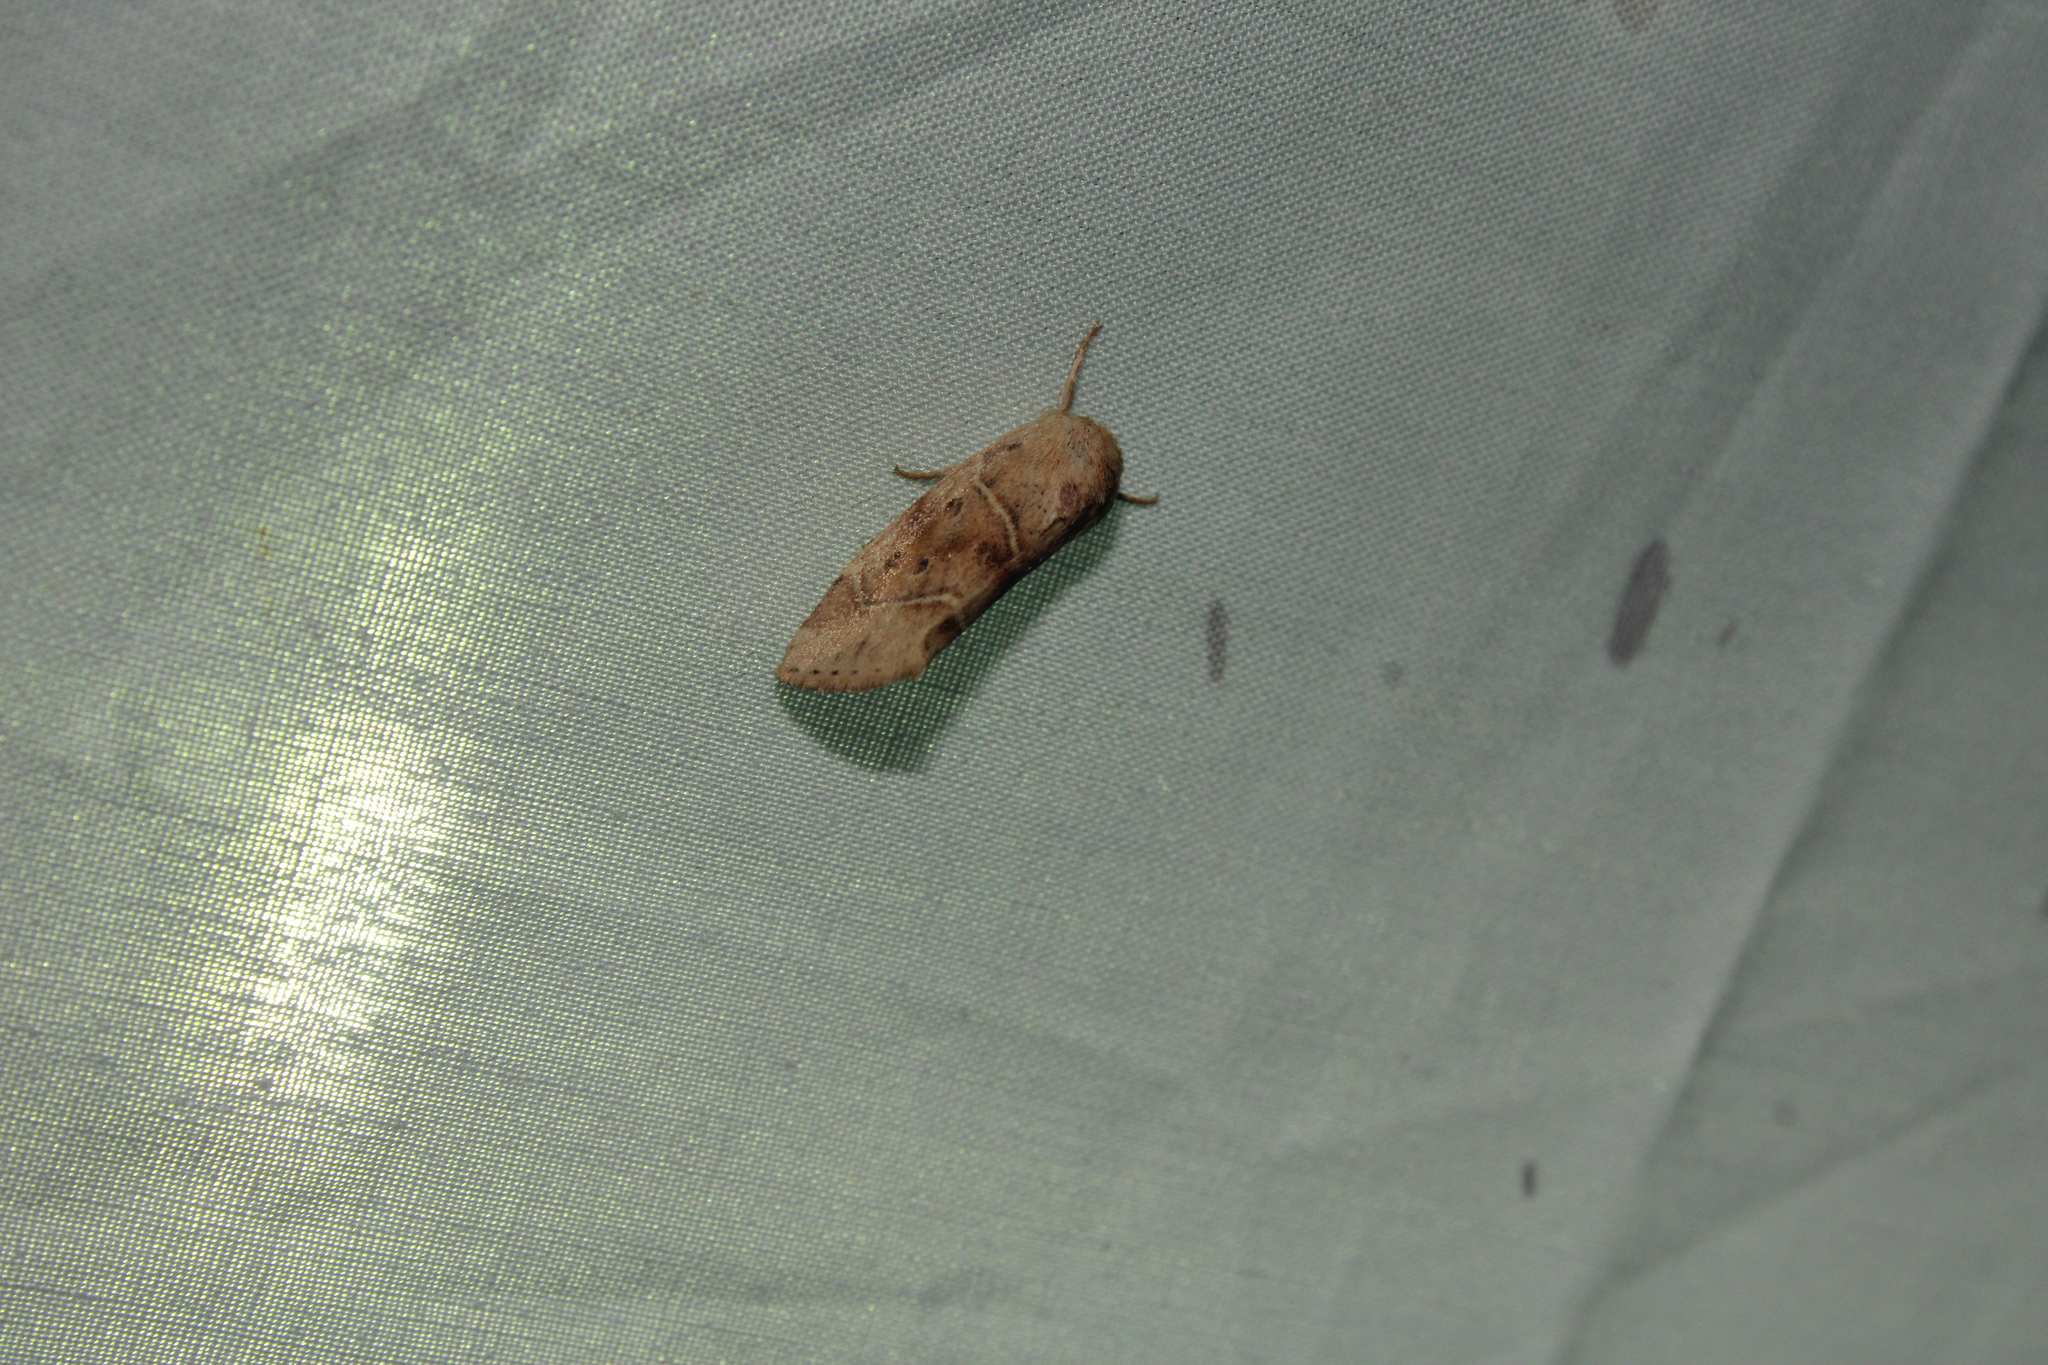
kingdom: Animalia
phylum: Arthropoda
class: Insecta
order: Lepidoptera
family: Noctuidae
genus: Cosmia
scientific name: Cosmia calami
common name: American dun-bar moth
